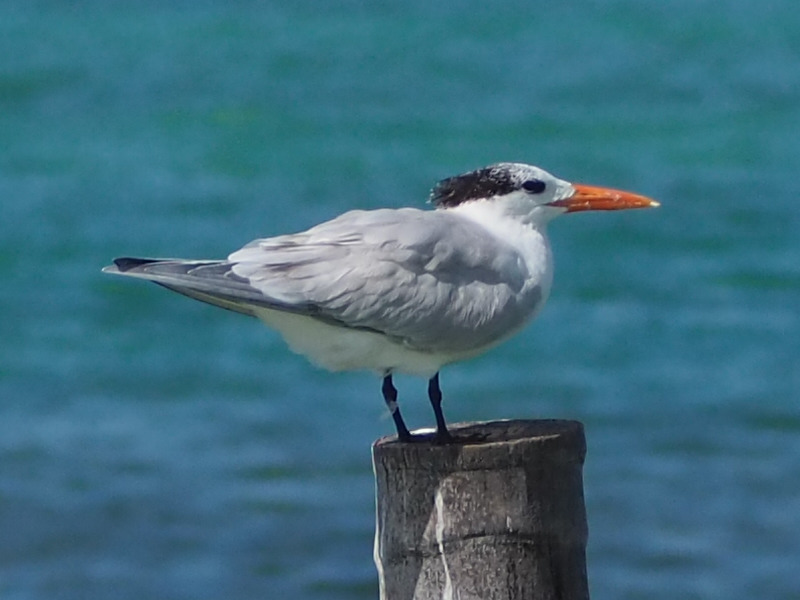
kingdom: Animalia
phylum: Chordata
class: Aves
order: Charadriiformes
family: Laridae
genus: Thalasseus
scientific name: Thalasseus maximus
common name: Royal tern
